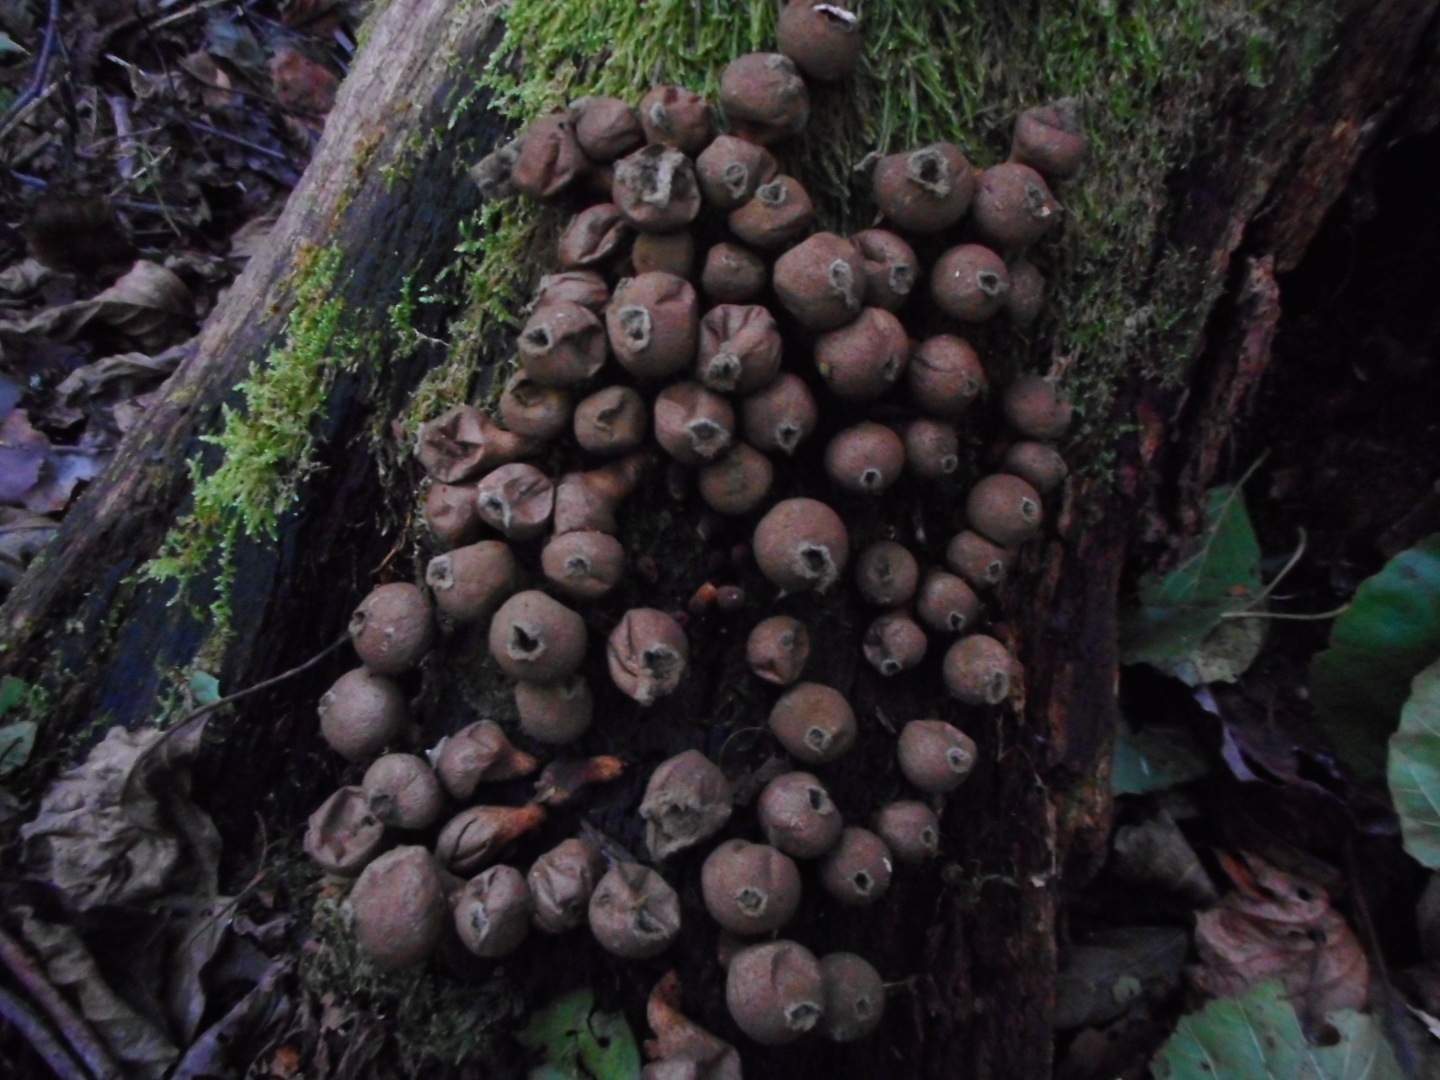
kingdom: Fungi
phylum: Basidiomycota
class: Agaricomycetes
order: Agaricales
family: Lycoperdaceae
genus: Apioperdon
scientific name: Apioperdon pyriforme
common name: Pear-shaped puffball
